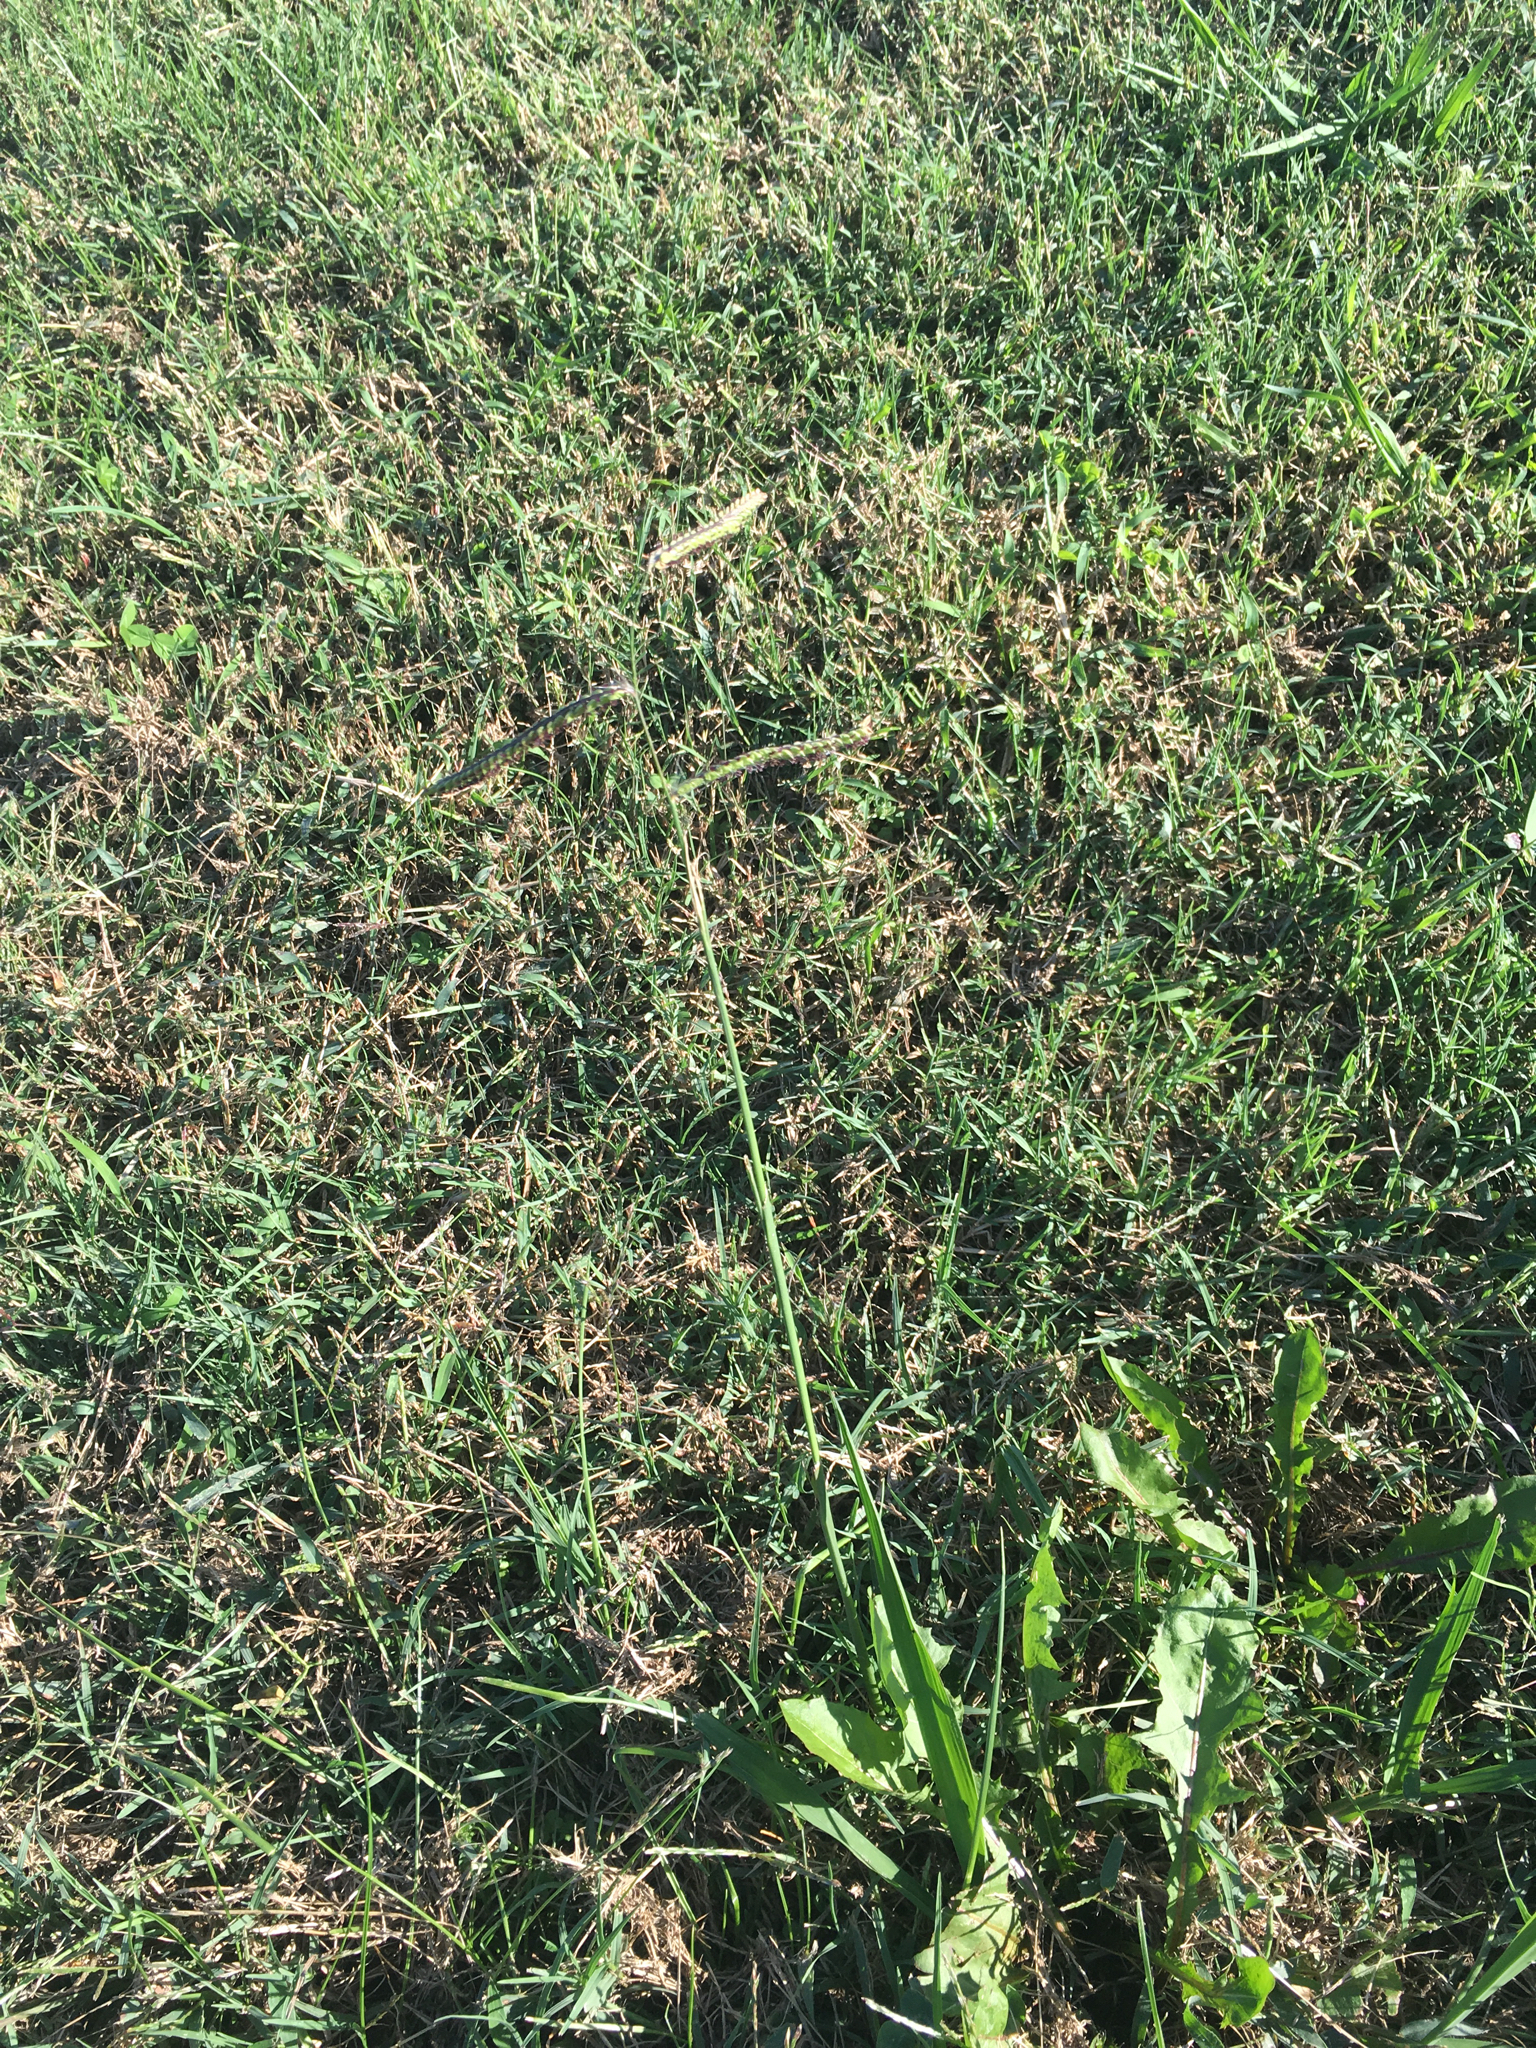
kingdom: Plantae
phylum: Tracheophyta
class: Liliopsida
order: Poales
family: Poaceae
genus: Paspalum
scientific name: Paspalum dilatatum
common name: Dallisgrass
